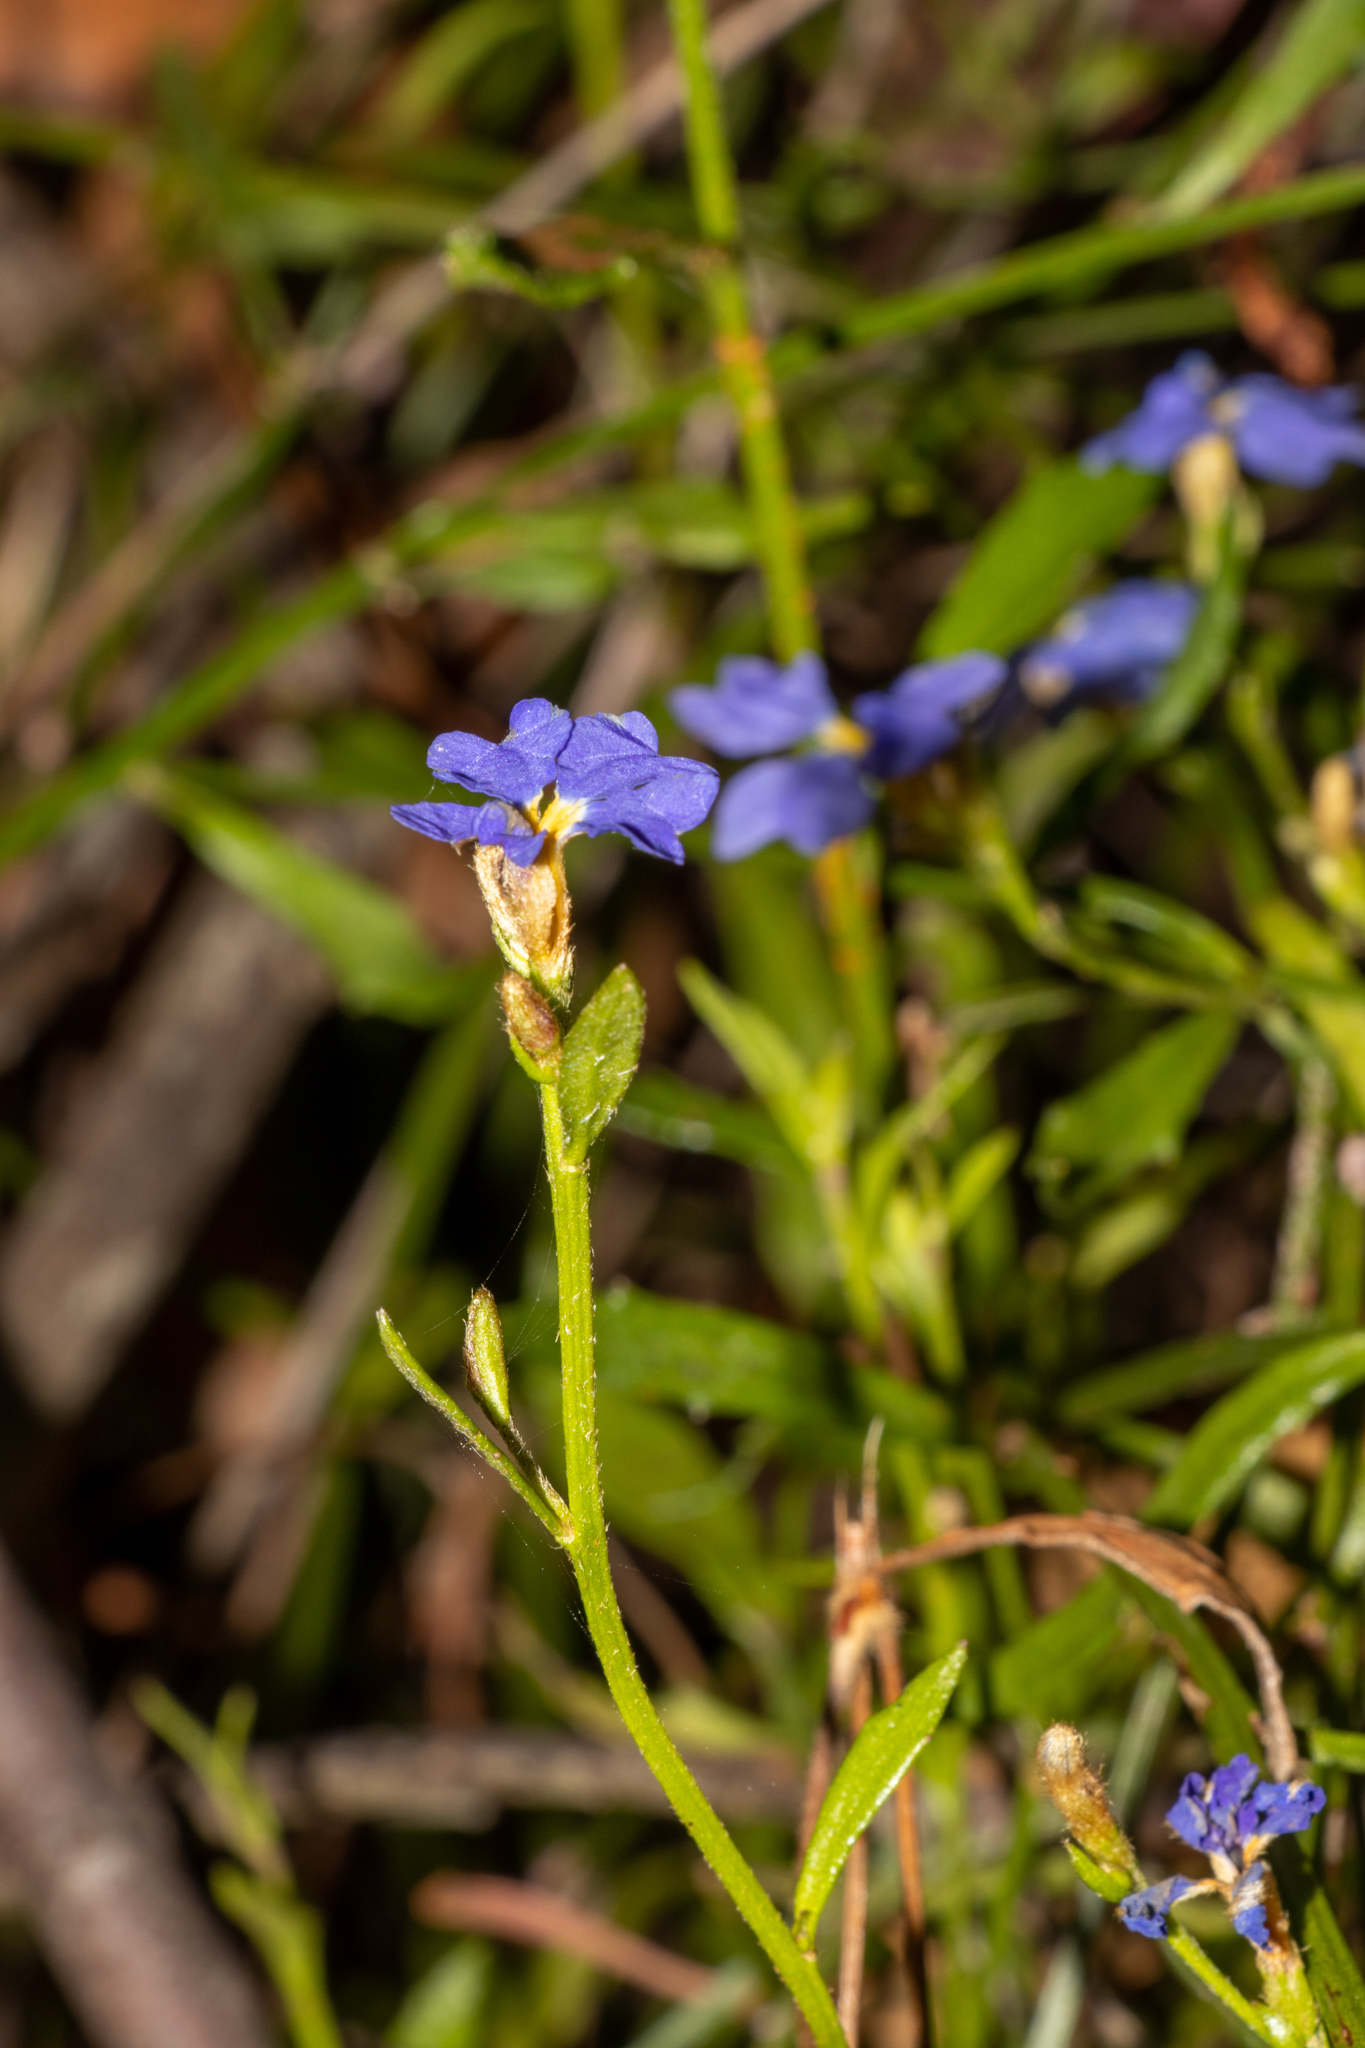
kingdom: Plantae
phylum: Tracheophyta
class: Magnoliopsida
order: Asterales
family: Goodeniaceae
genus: Dampiera
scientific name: Dampiera stricta
